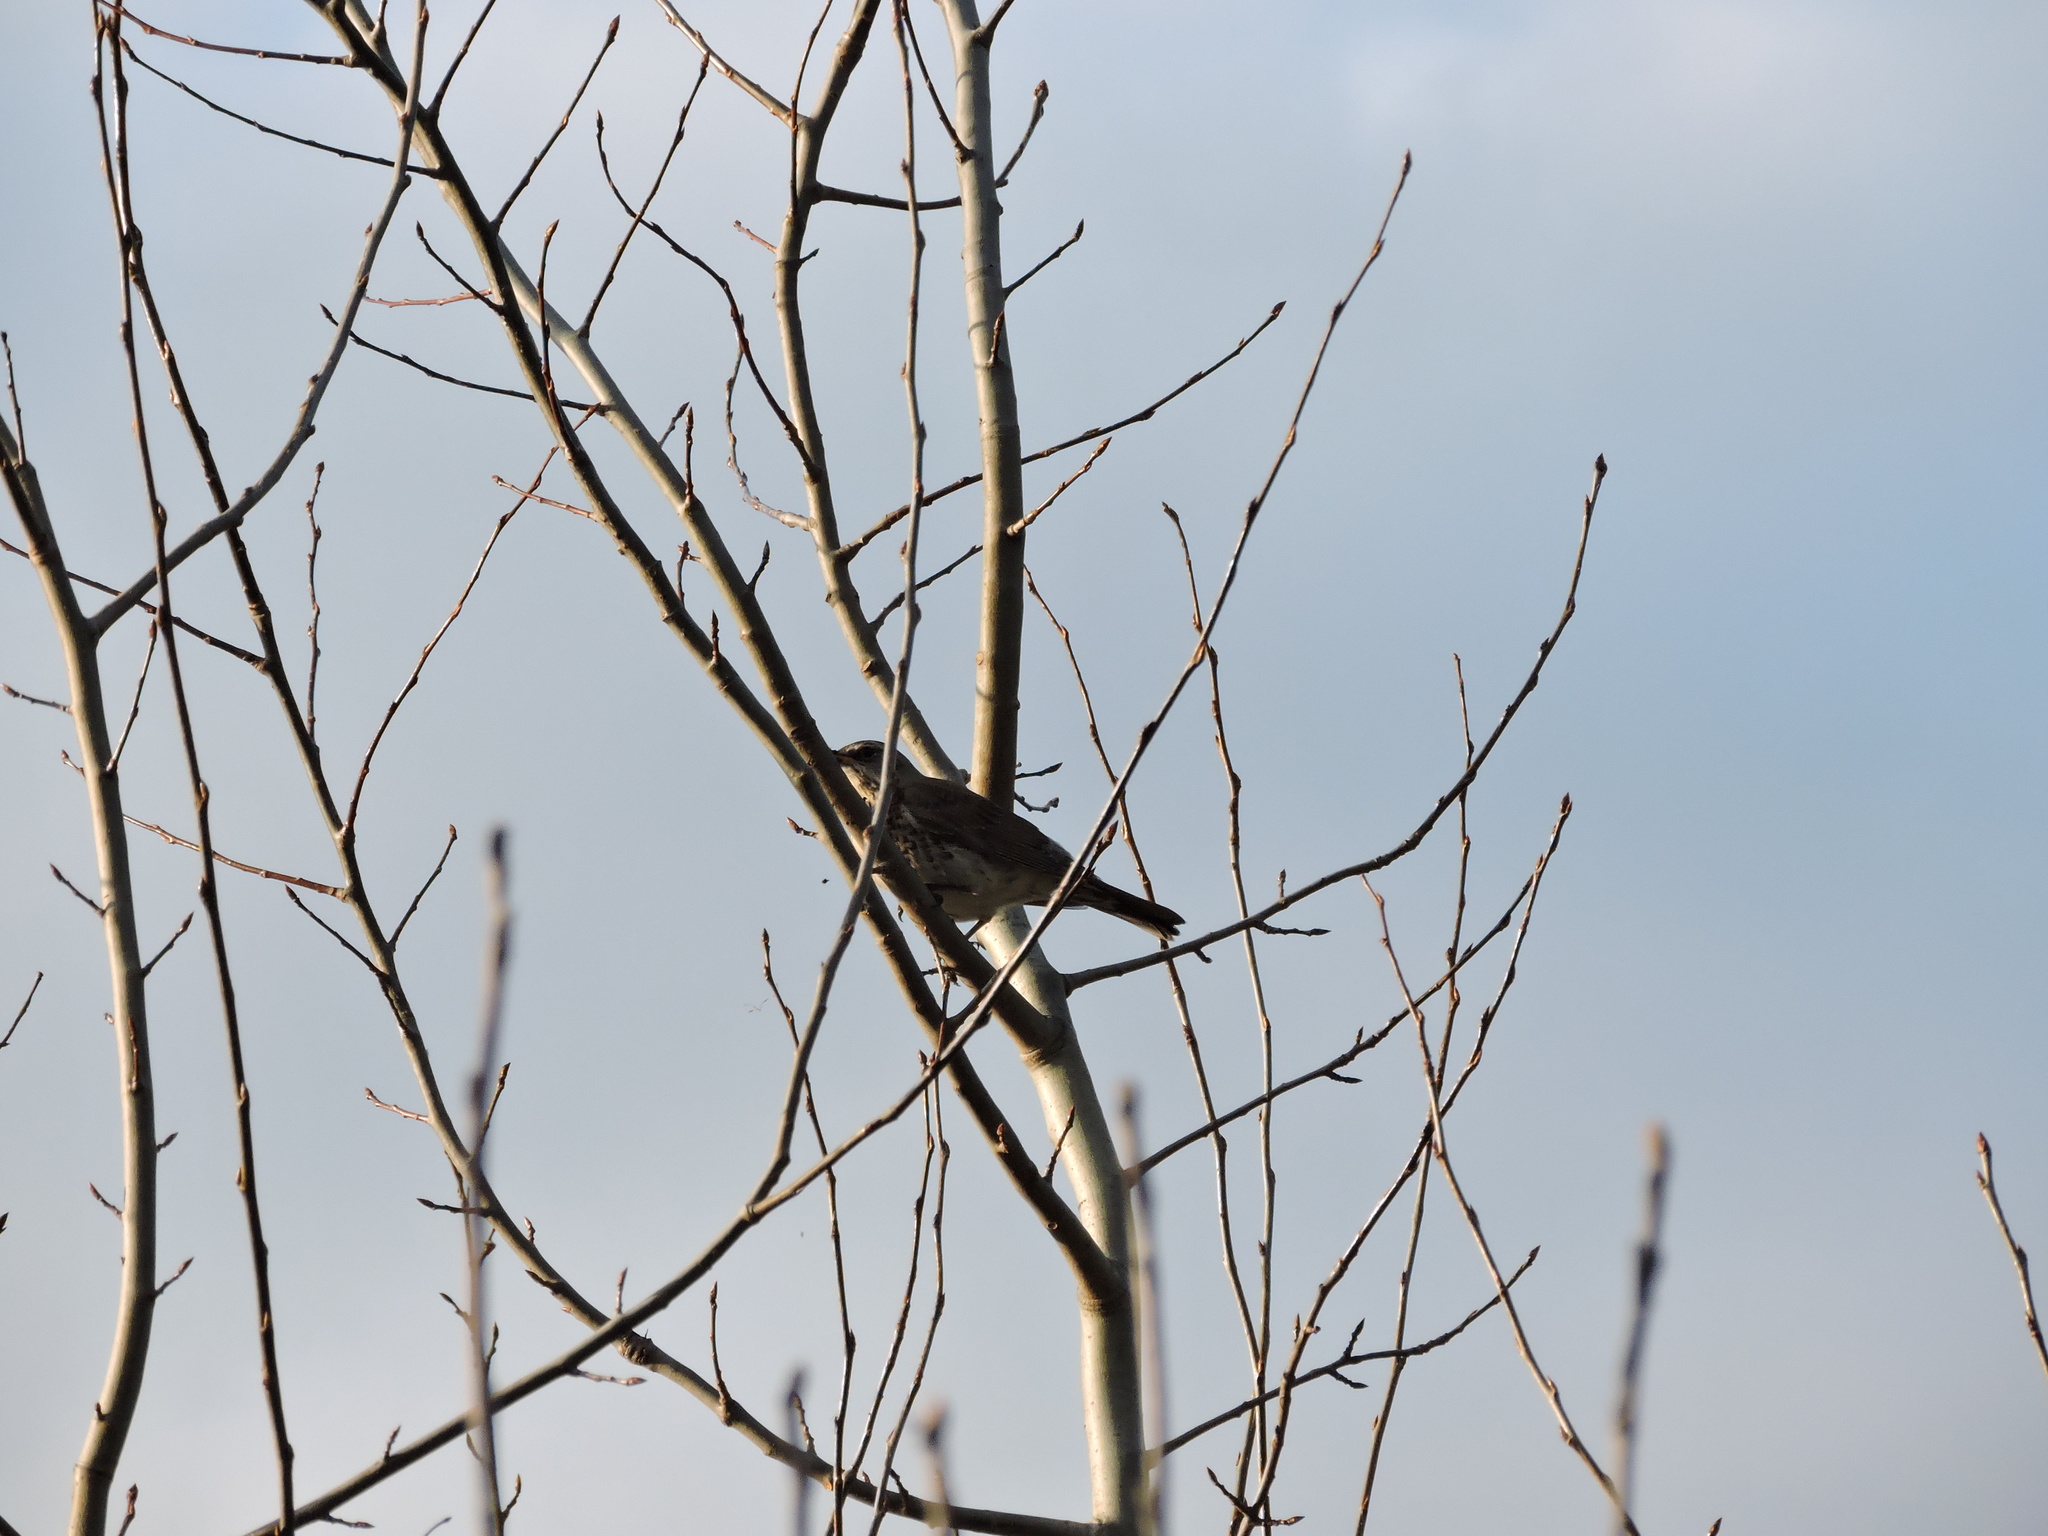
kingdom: Animalia
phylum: Chordata
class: Aves
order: Passeriformes
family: Turdidae
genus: Turdus
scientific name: Turdus pilaris
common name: Fieldfare
